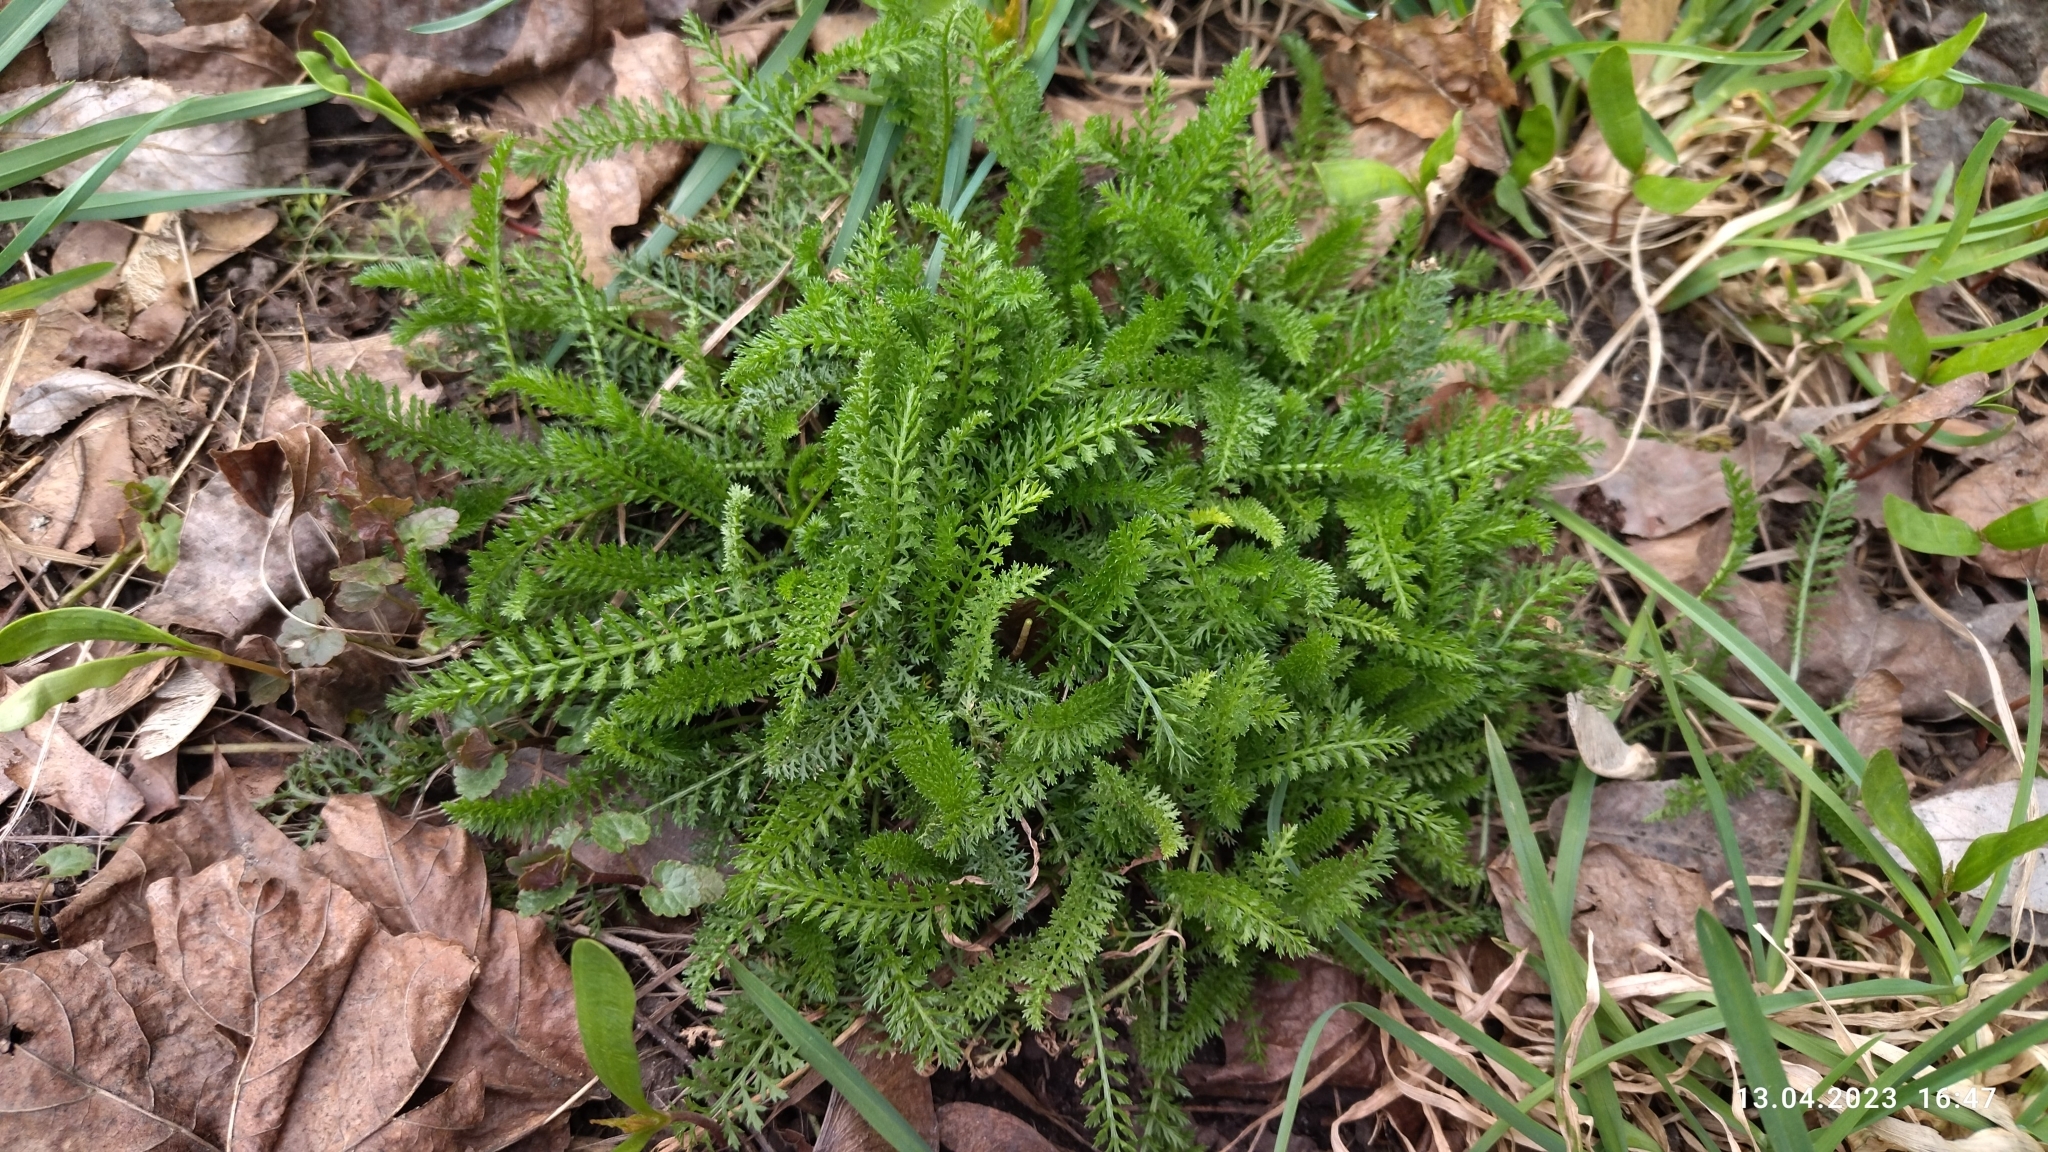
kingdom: Plantae
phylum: Tracheophyta
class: Magnoliopsida
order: Asterales
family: Asteraceae
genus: Achillea
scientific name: Achillea millefolium
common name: Yarrow
